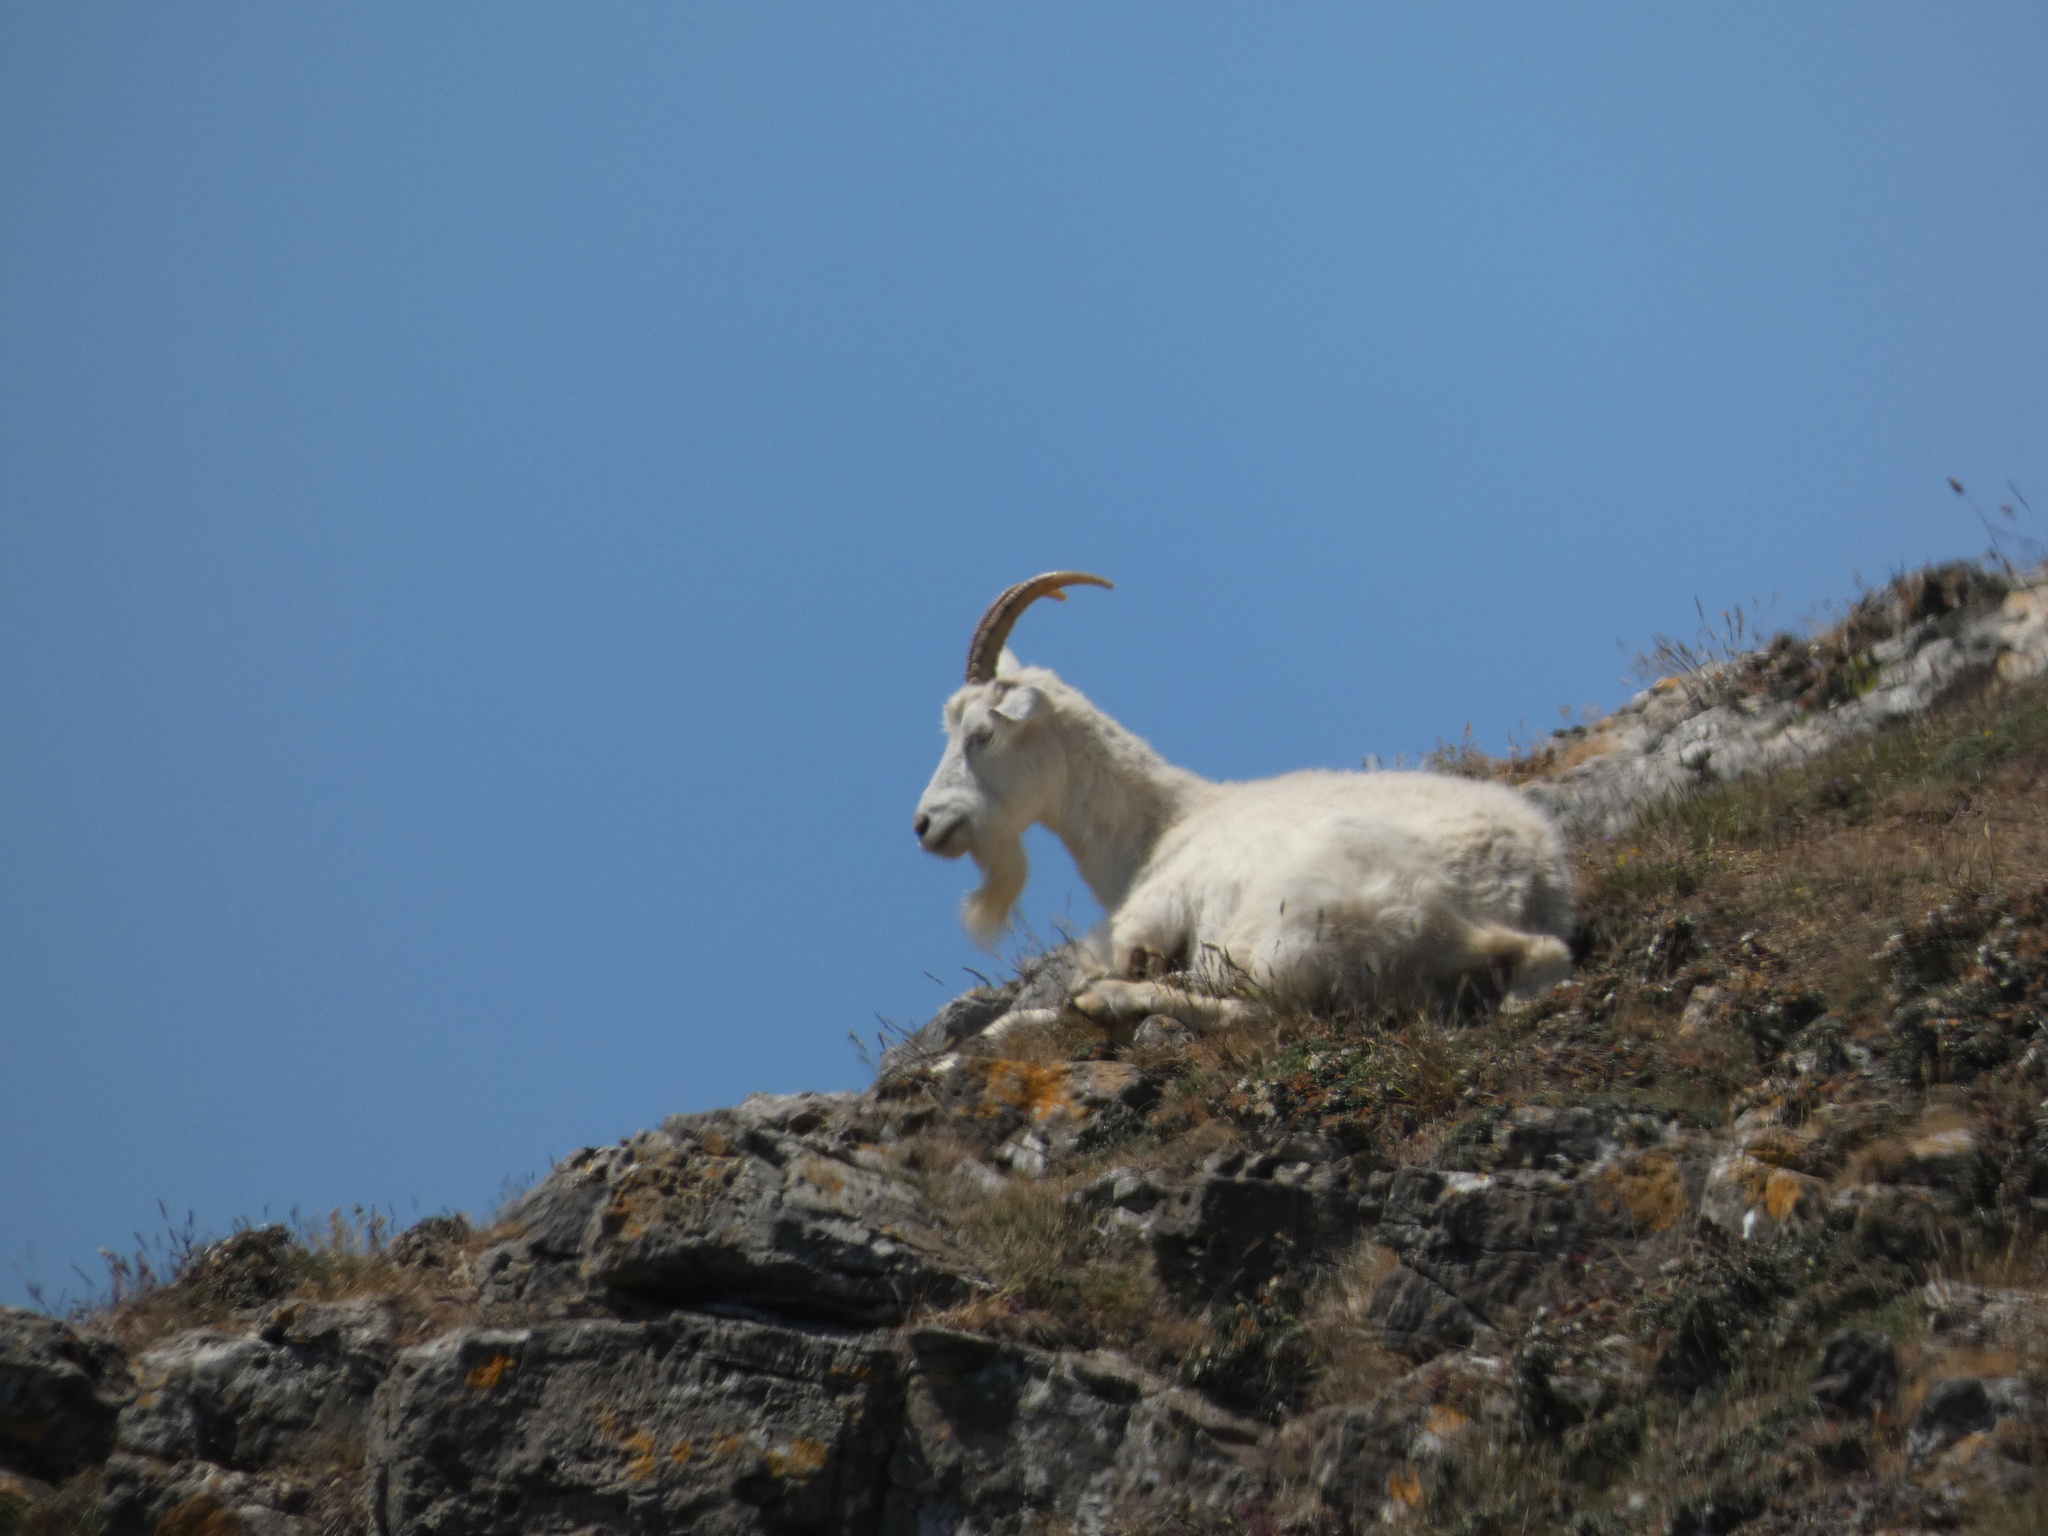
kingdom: Animalia
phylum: Chordata
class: Mammalia
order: Artiodactyla
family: Bovidae
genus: Capra
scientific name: Capra hircus
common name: Domestic goat
